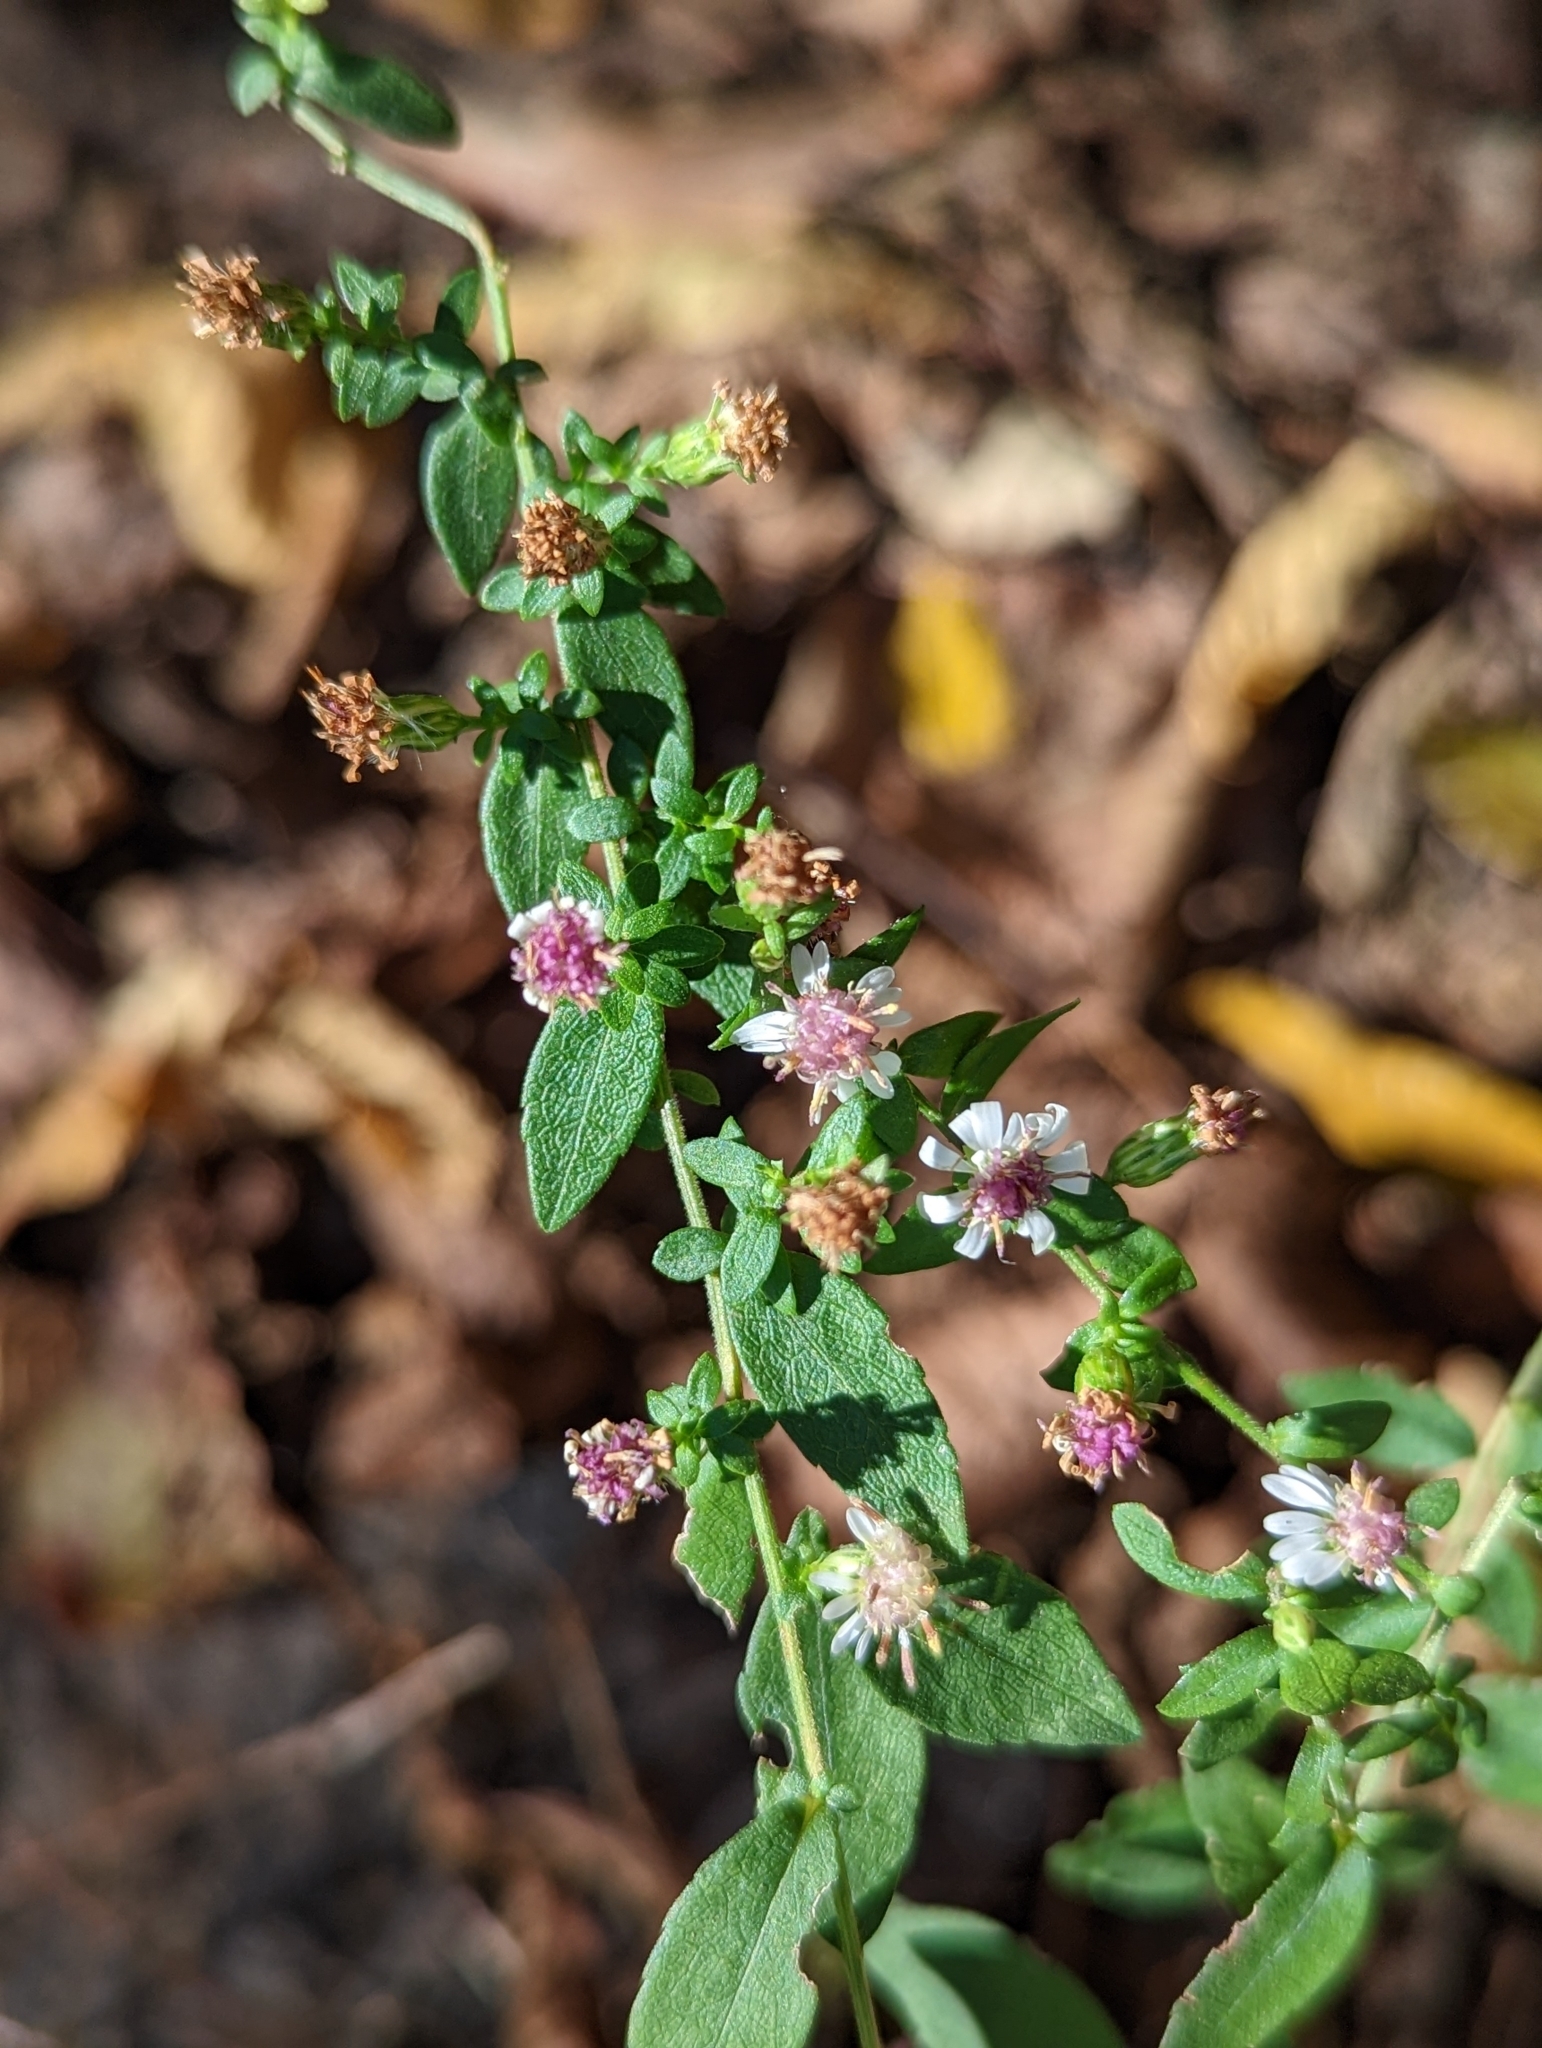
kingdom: Plantae
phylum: Tracheophyta
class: Magnoliopsida
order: Asterales
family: Asteraceae
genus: Symphyotrichum
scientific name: Symphyotrichum lateriflorum
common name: Calico aster
